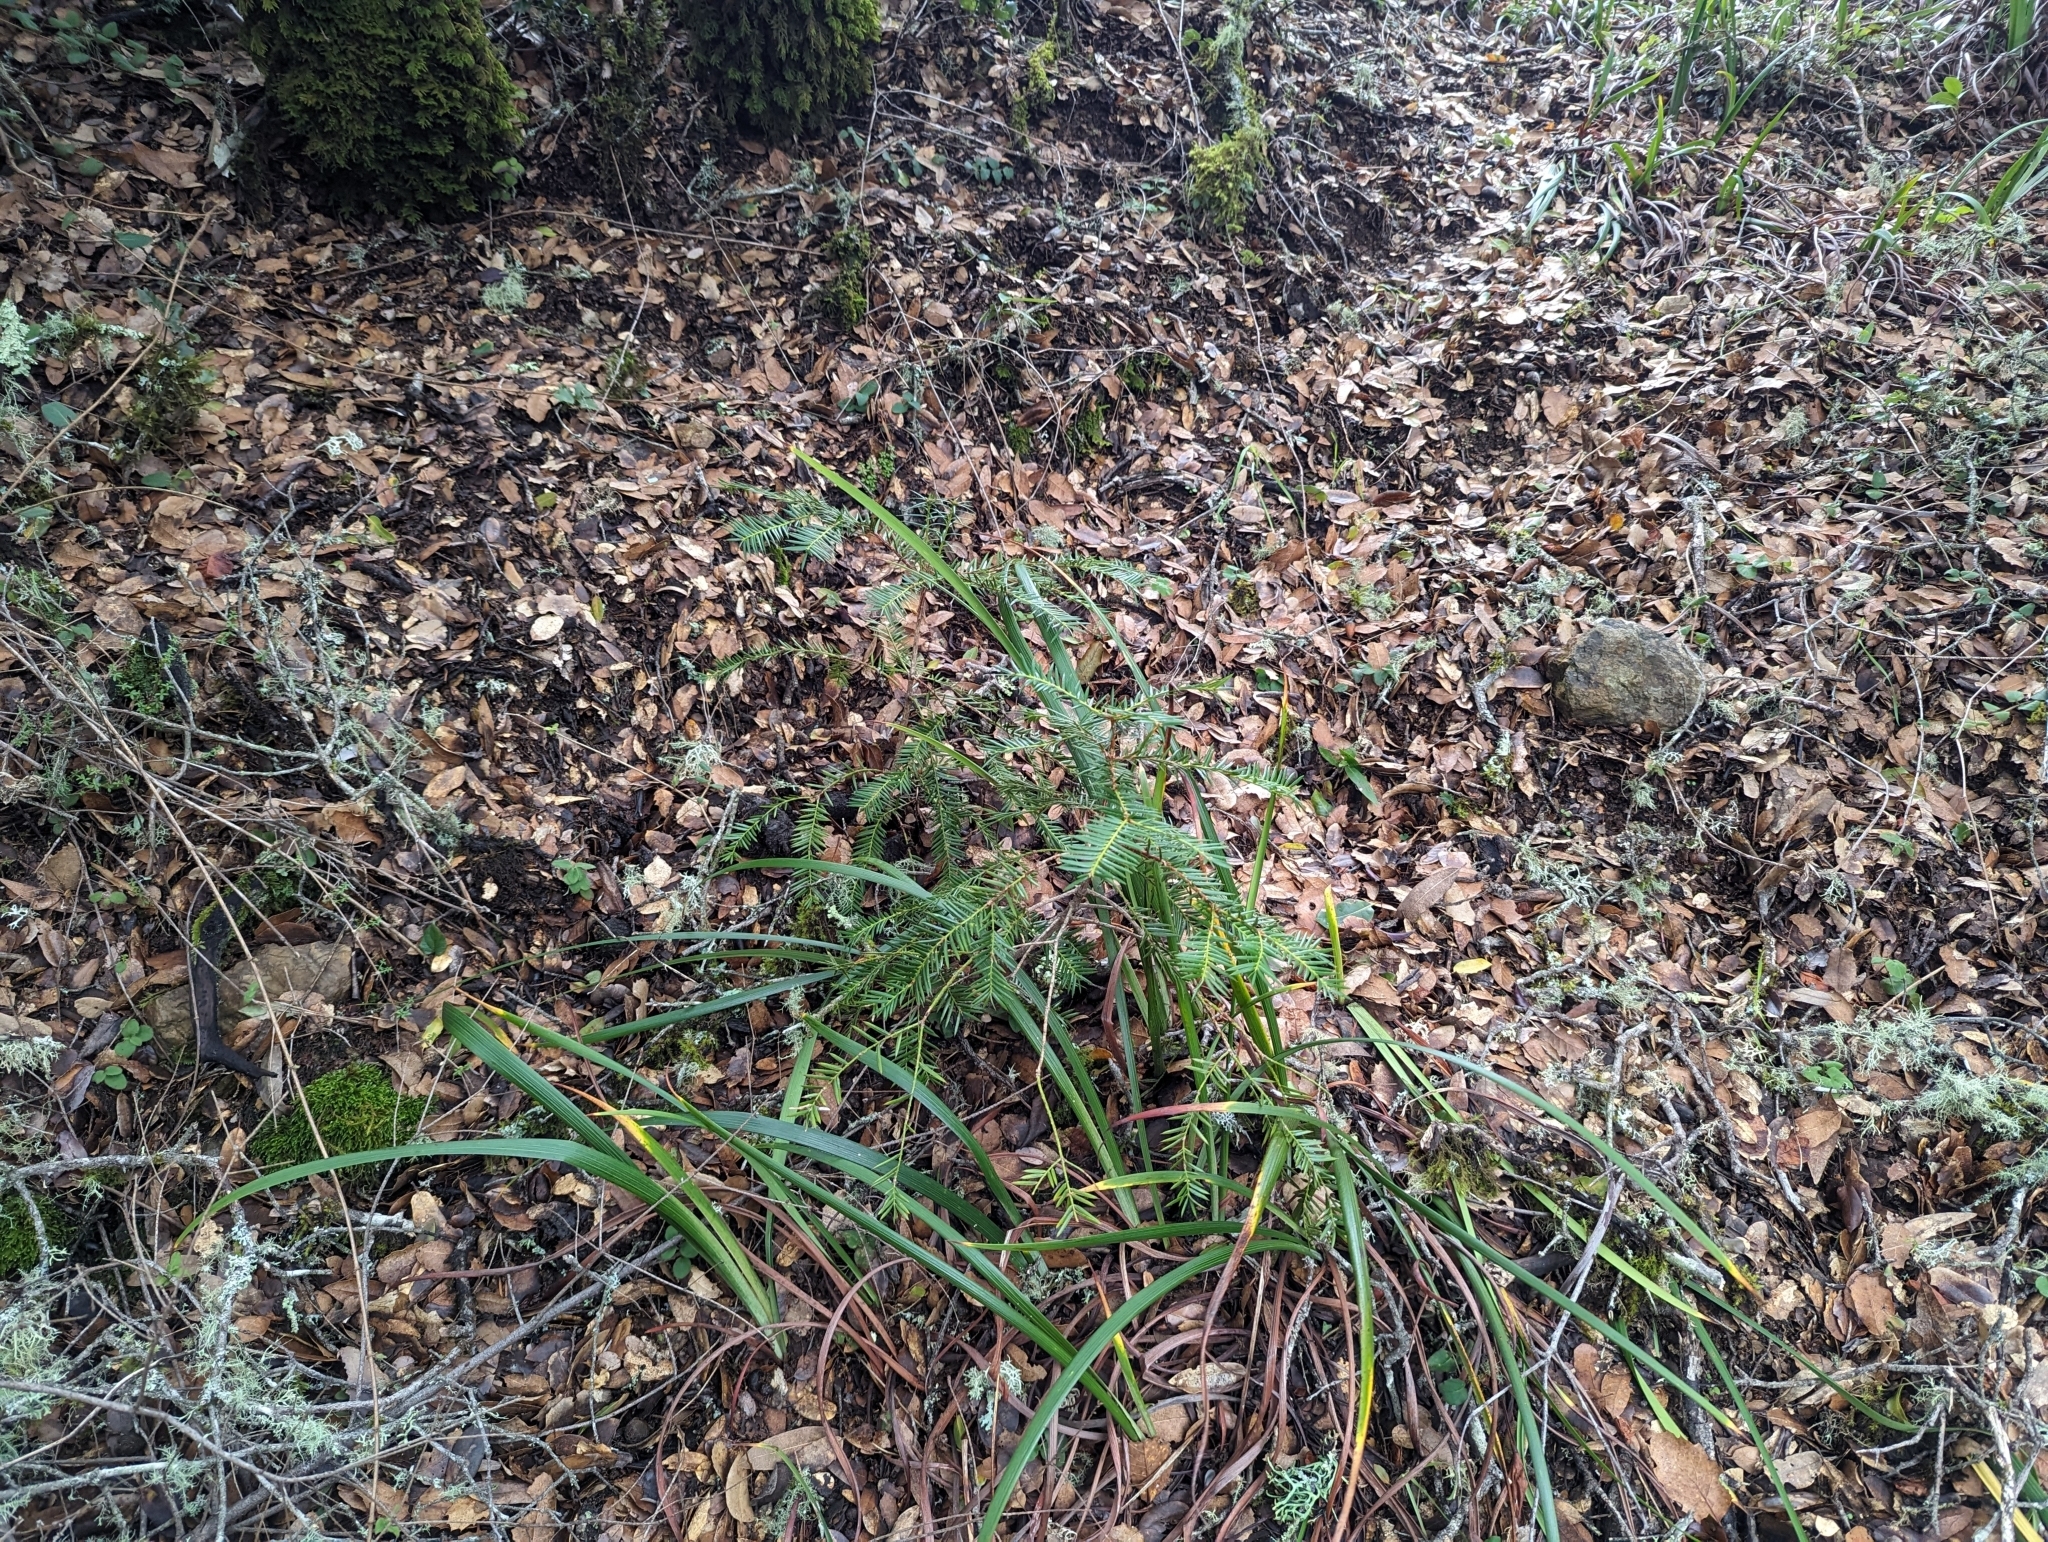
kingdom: Plantae
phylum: Tracheophyta
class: Pinopsida
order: Pinales
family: Taxaceae
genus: Torreya
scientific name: Torreya californica
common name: California torreya
